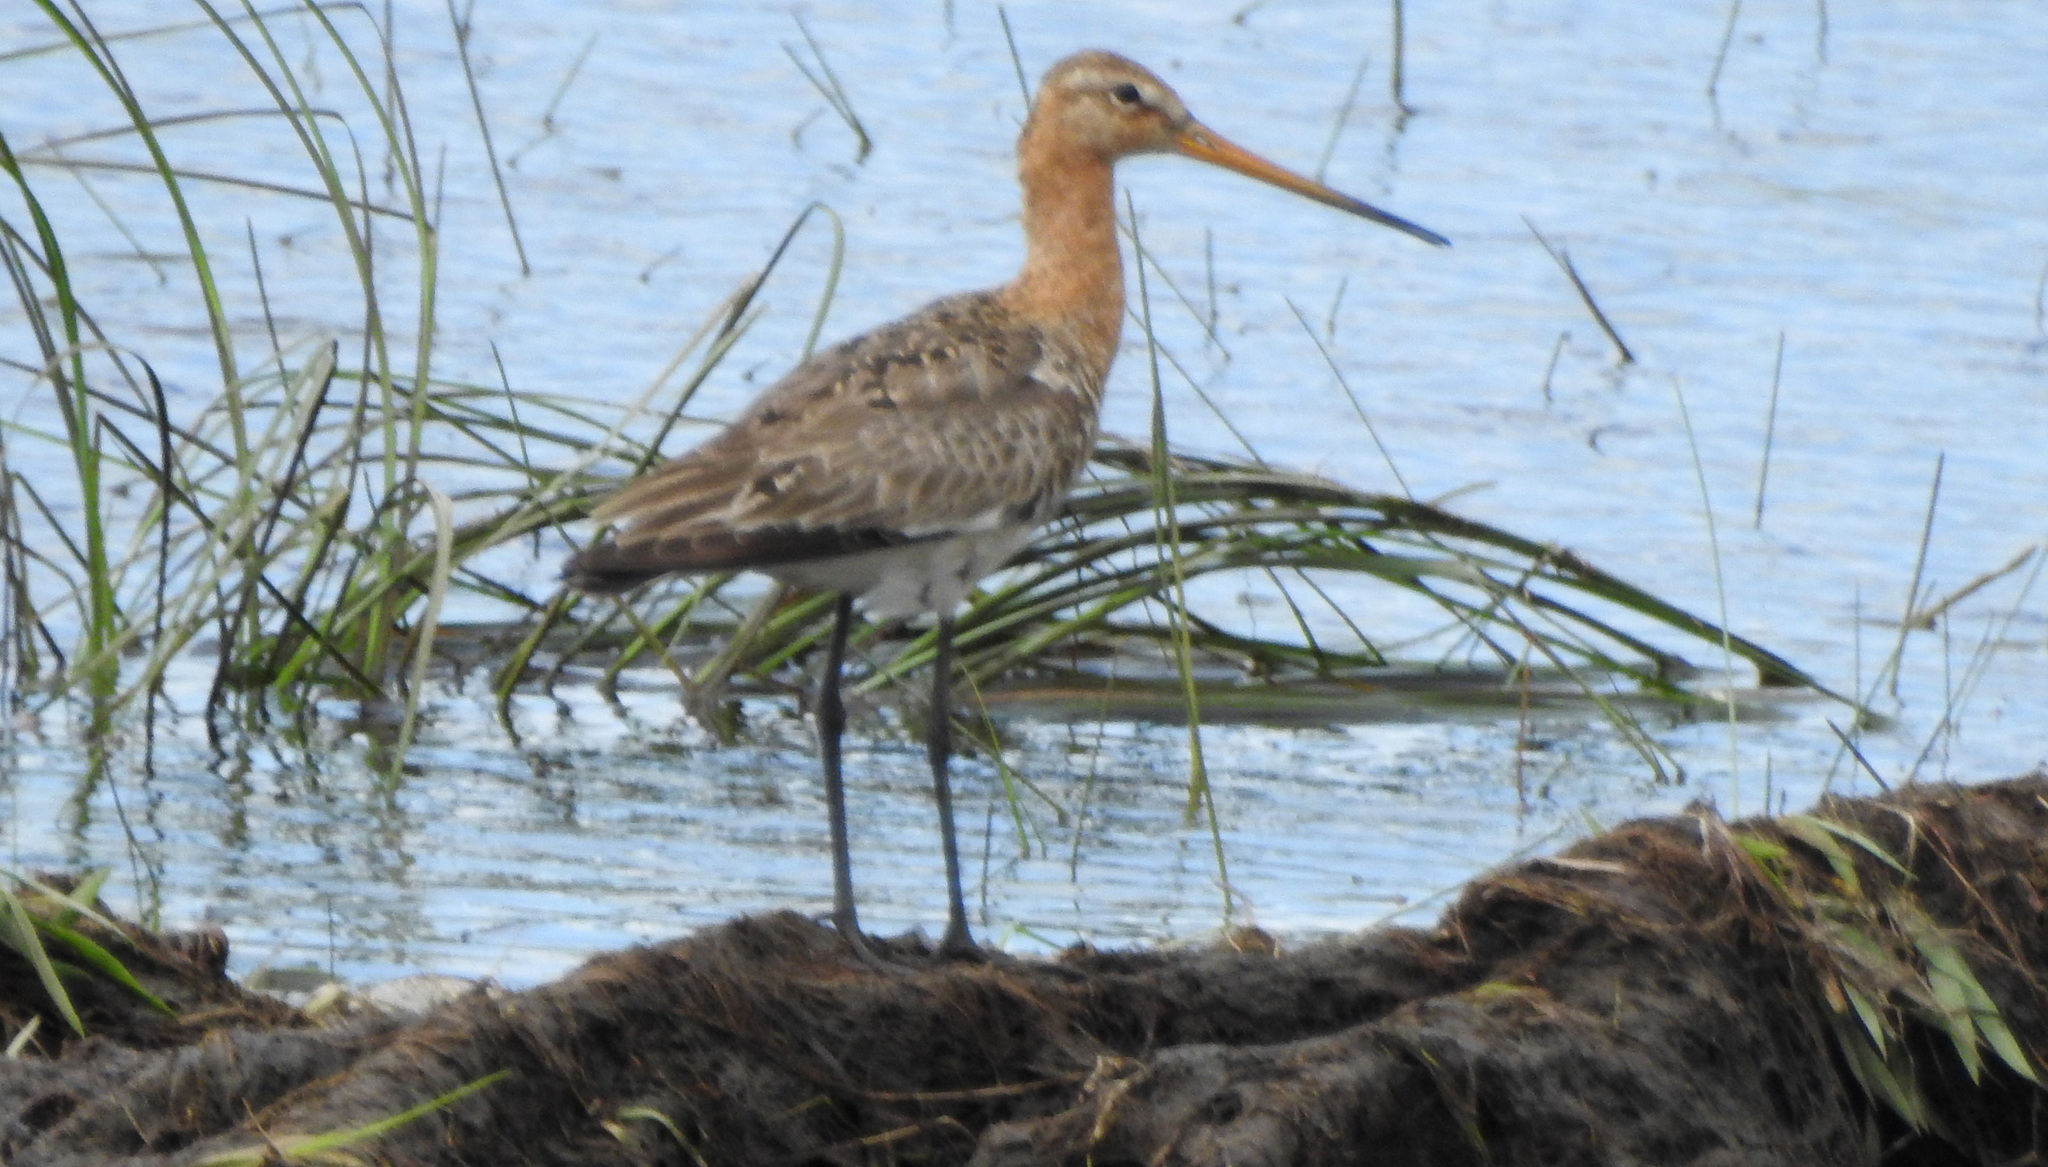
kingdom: Animalia
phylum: Chordata
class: Aves
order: Charadriiformes
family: Scolopacidae
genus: Limosa
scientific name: Limosa limosa
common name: Black-tailed godwit
